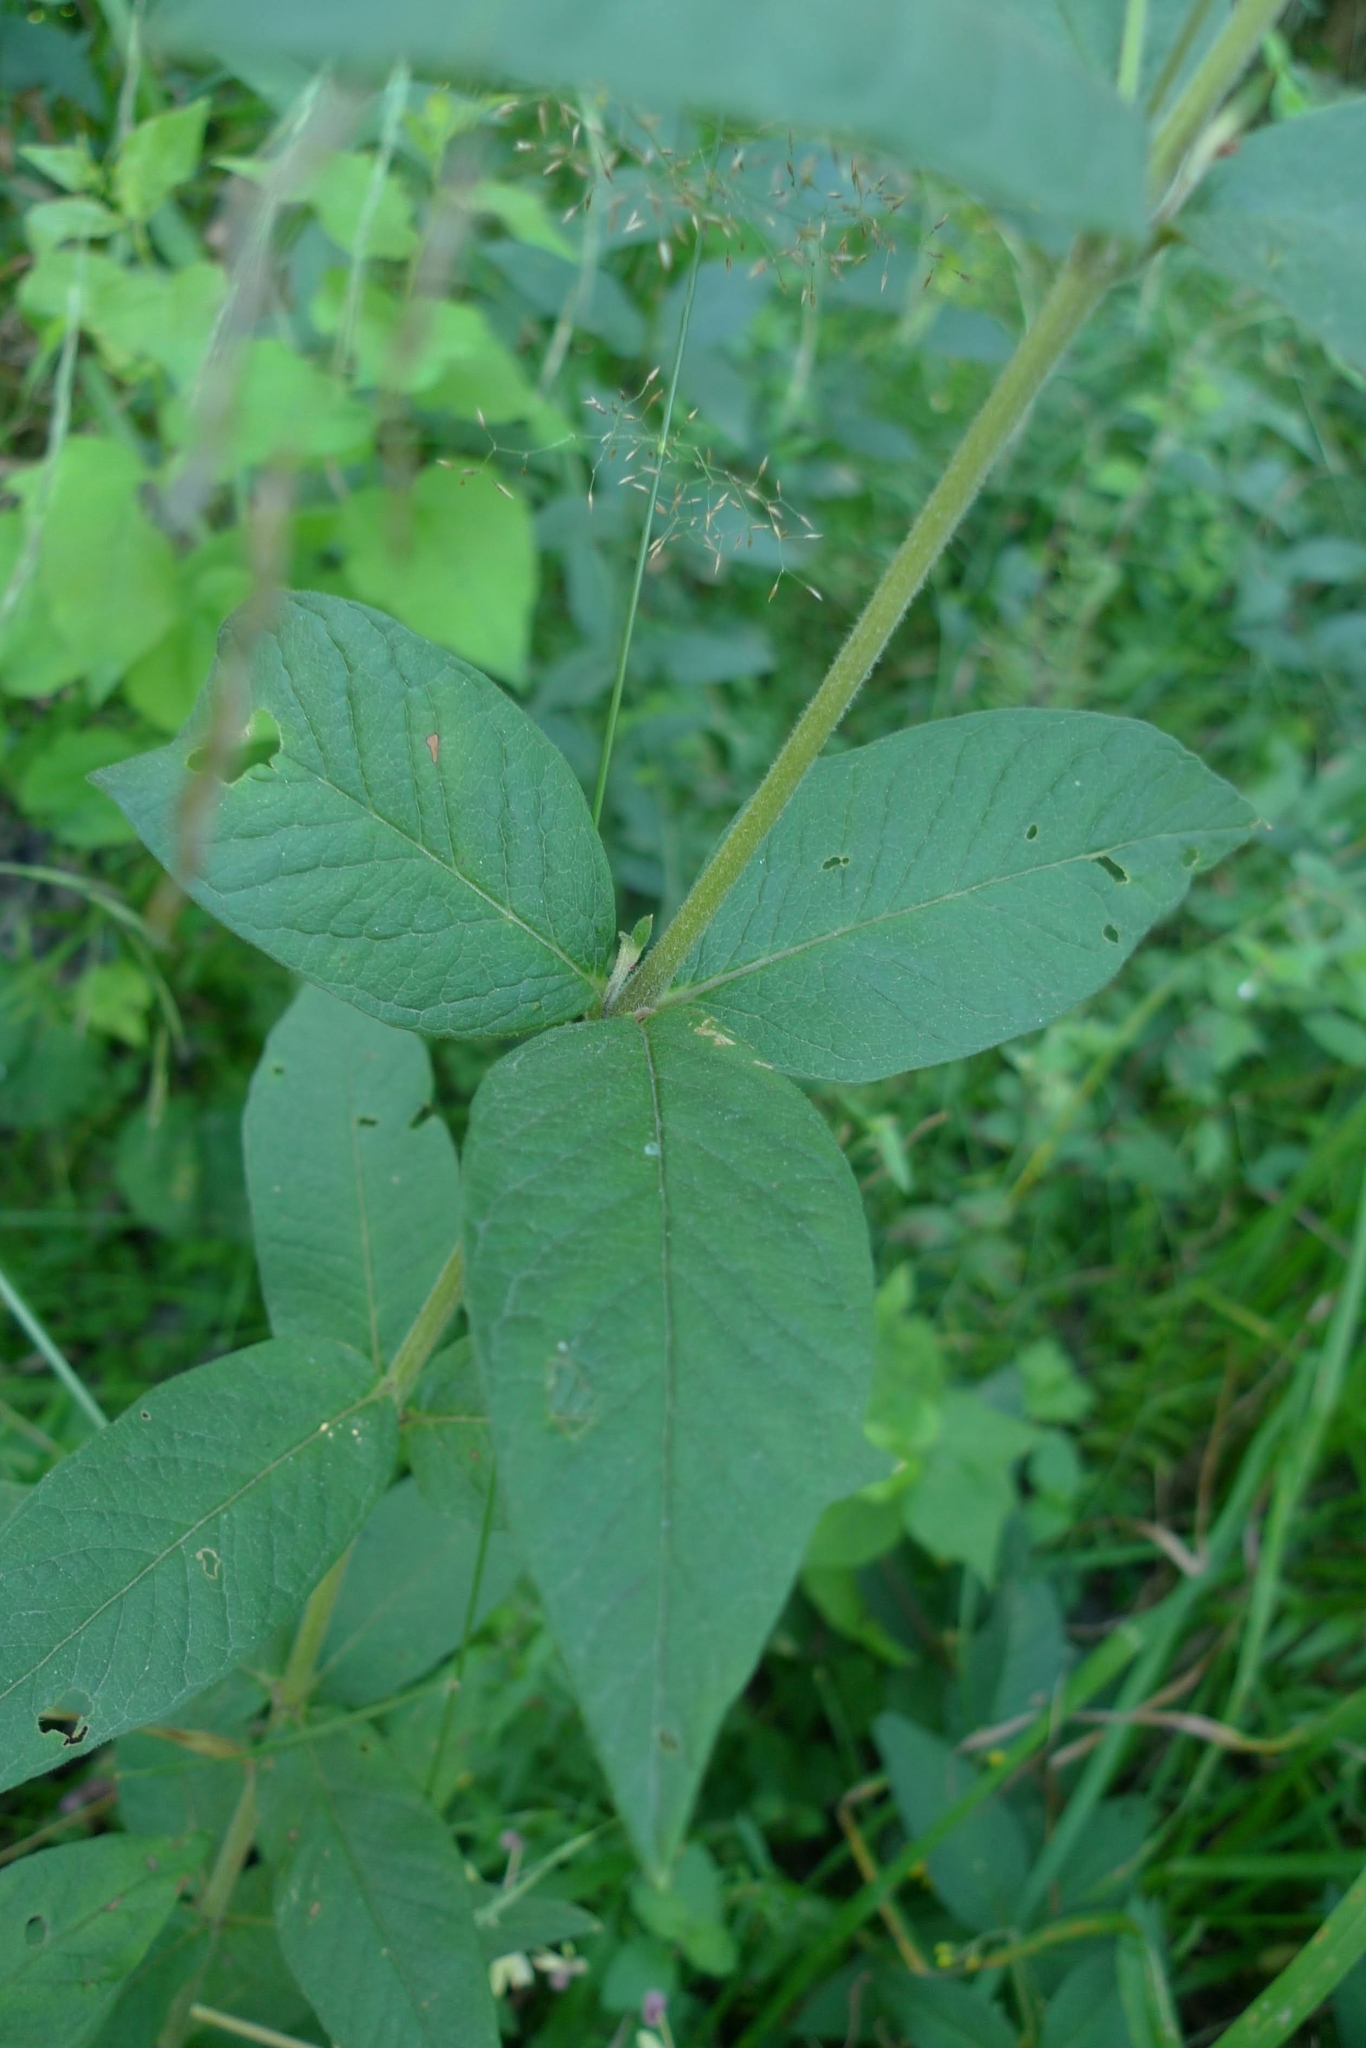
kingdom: Plantae
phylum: Tracheophyta
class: Magnoliopsida
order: Ericales
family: Primulaceae
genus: Lysimachia
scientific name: Lysimachia vulgaris
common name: Yellow loosestrife
